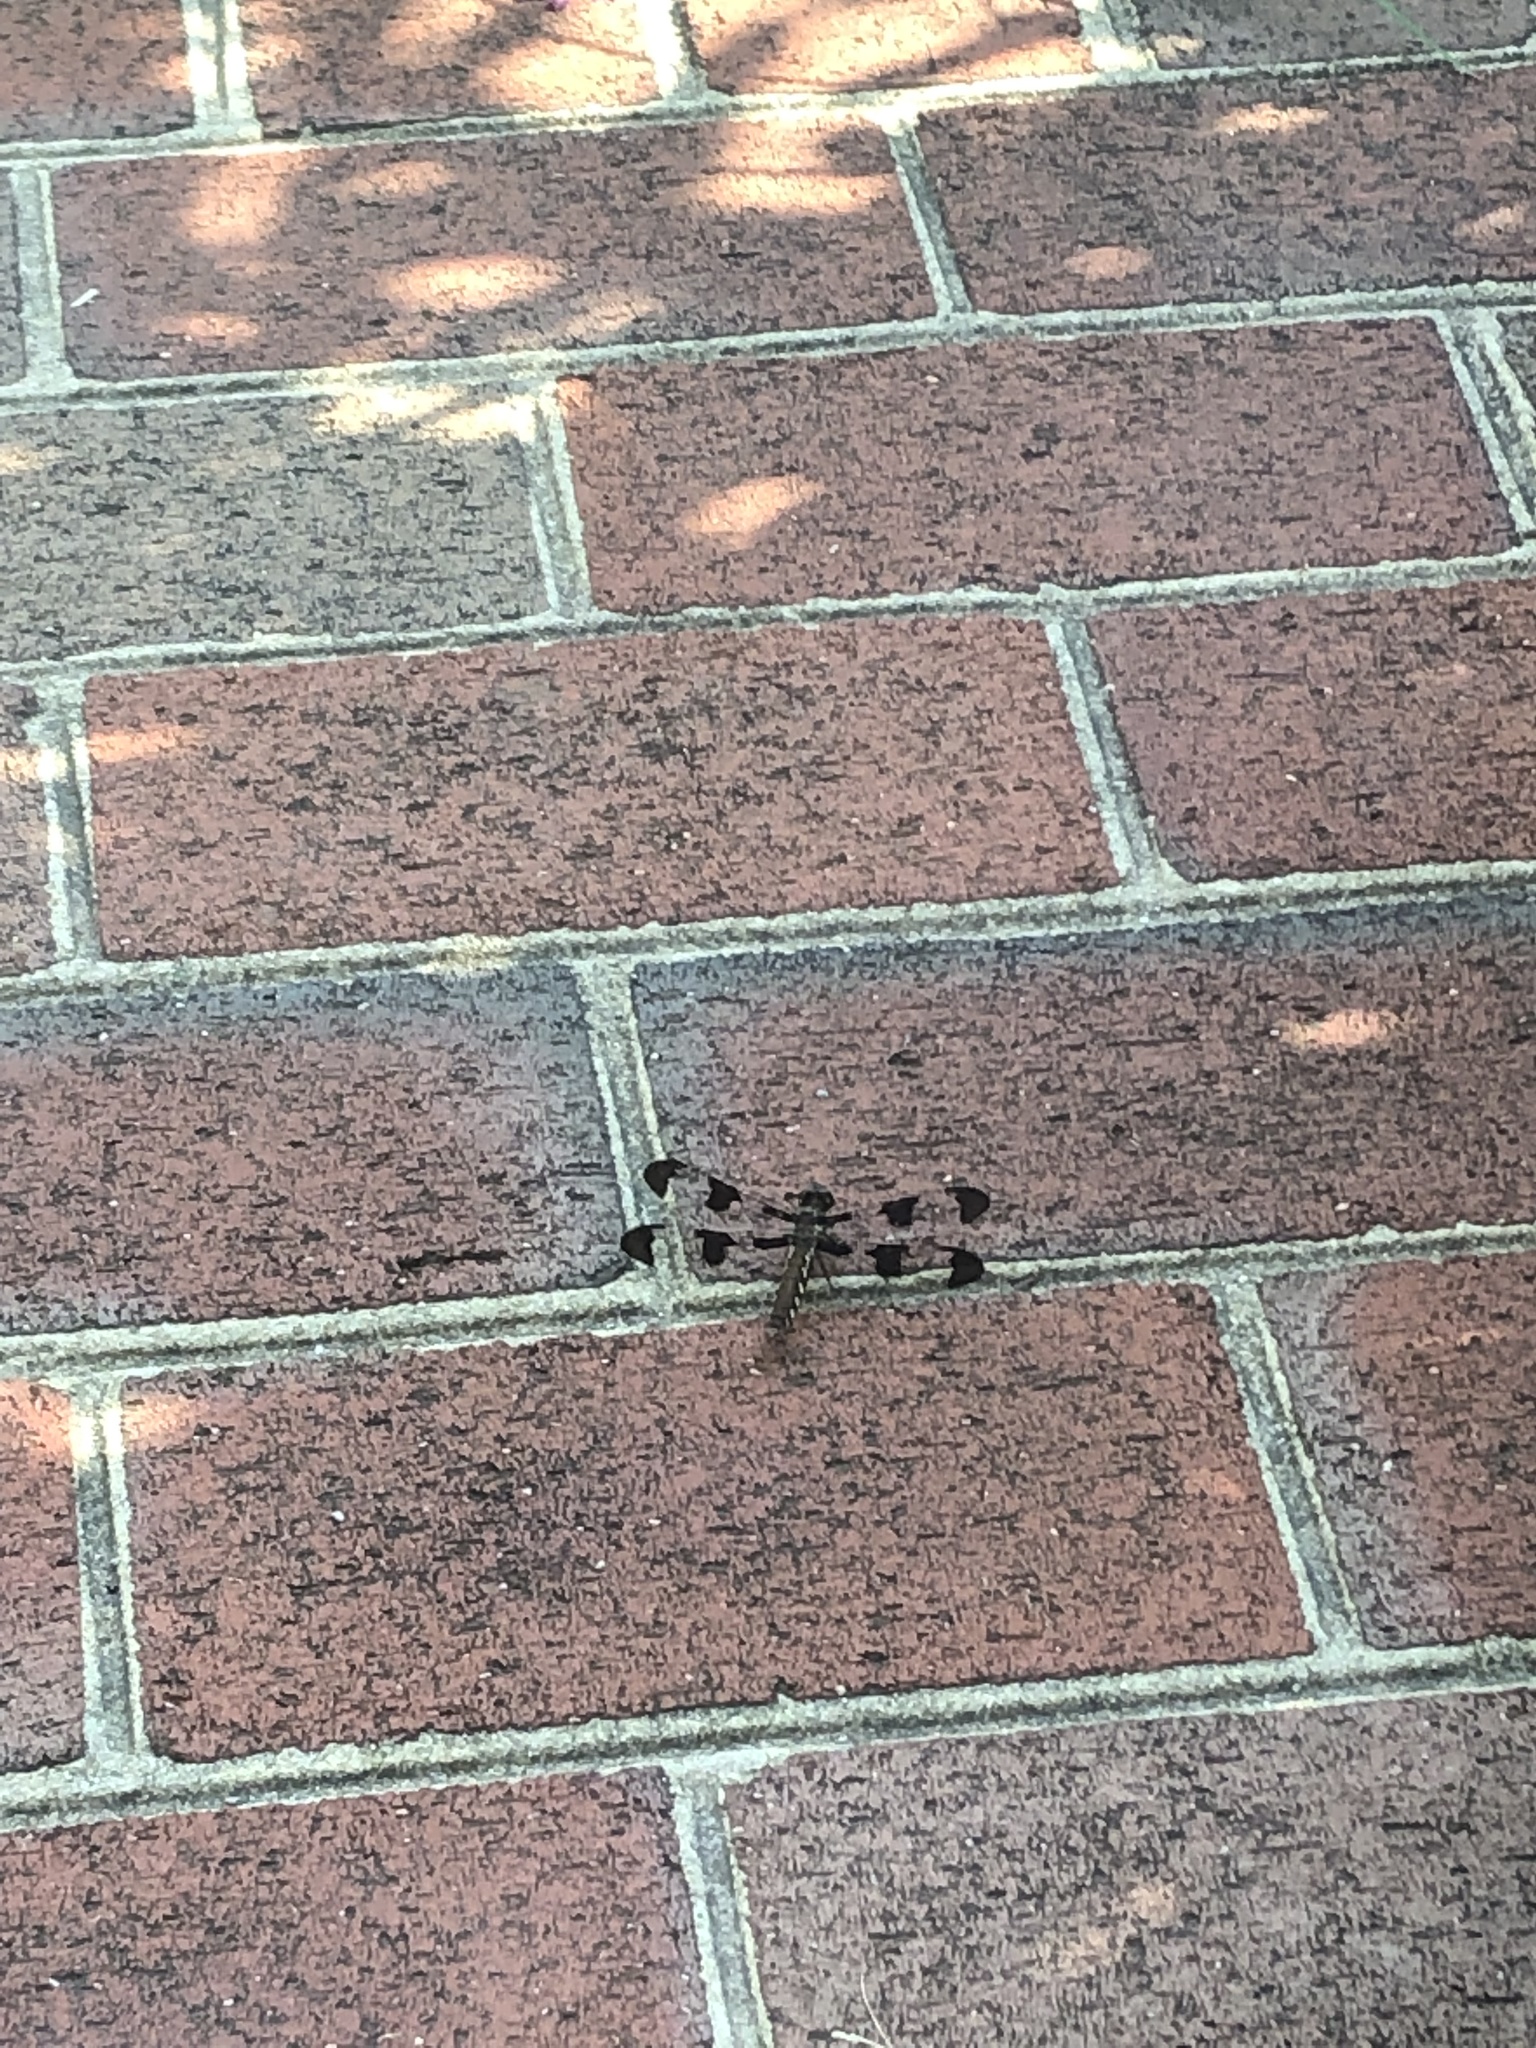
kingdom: Animalia
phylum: Arthropoda
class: Insecta
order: Odonata
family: Libellulidae
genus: Plathemis
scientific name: Plathemis lydia
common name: Common whitetail
